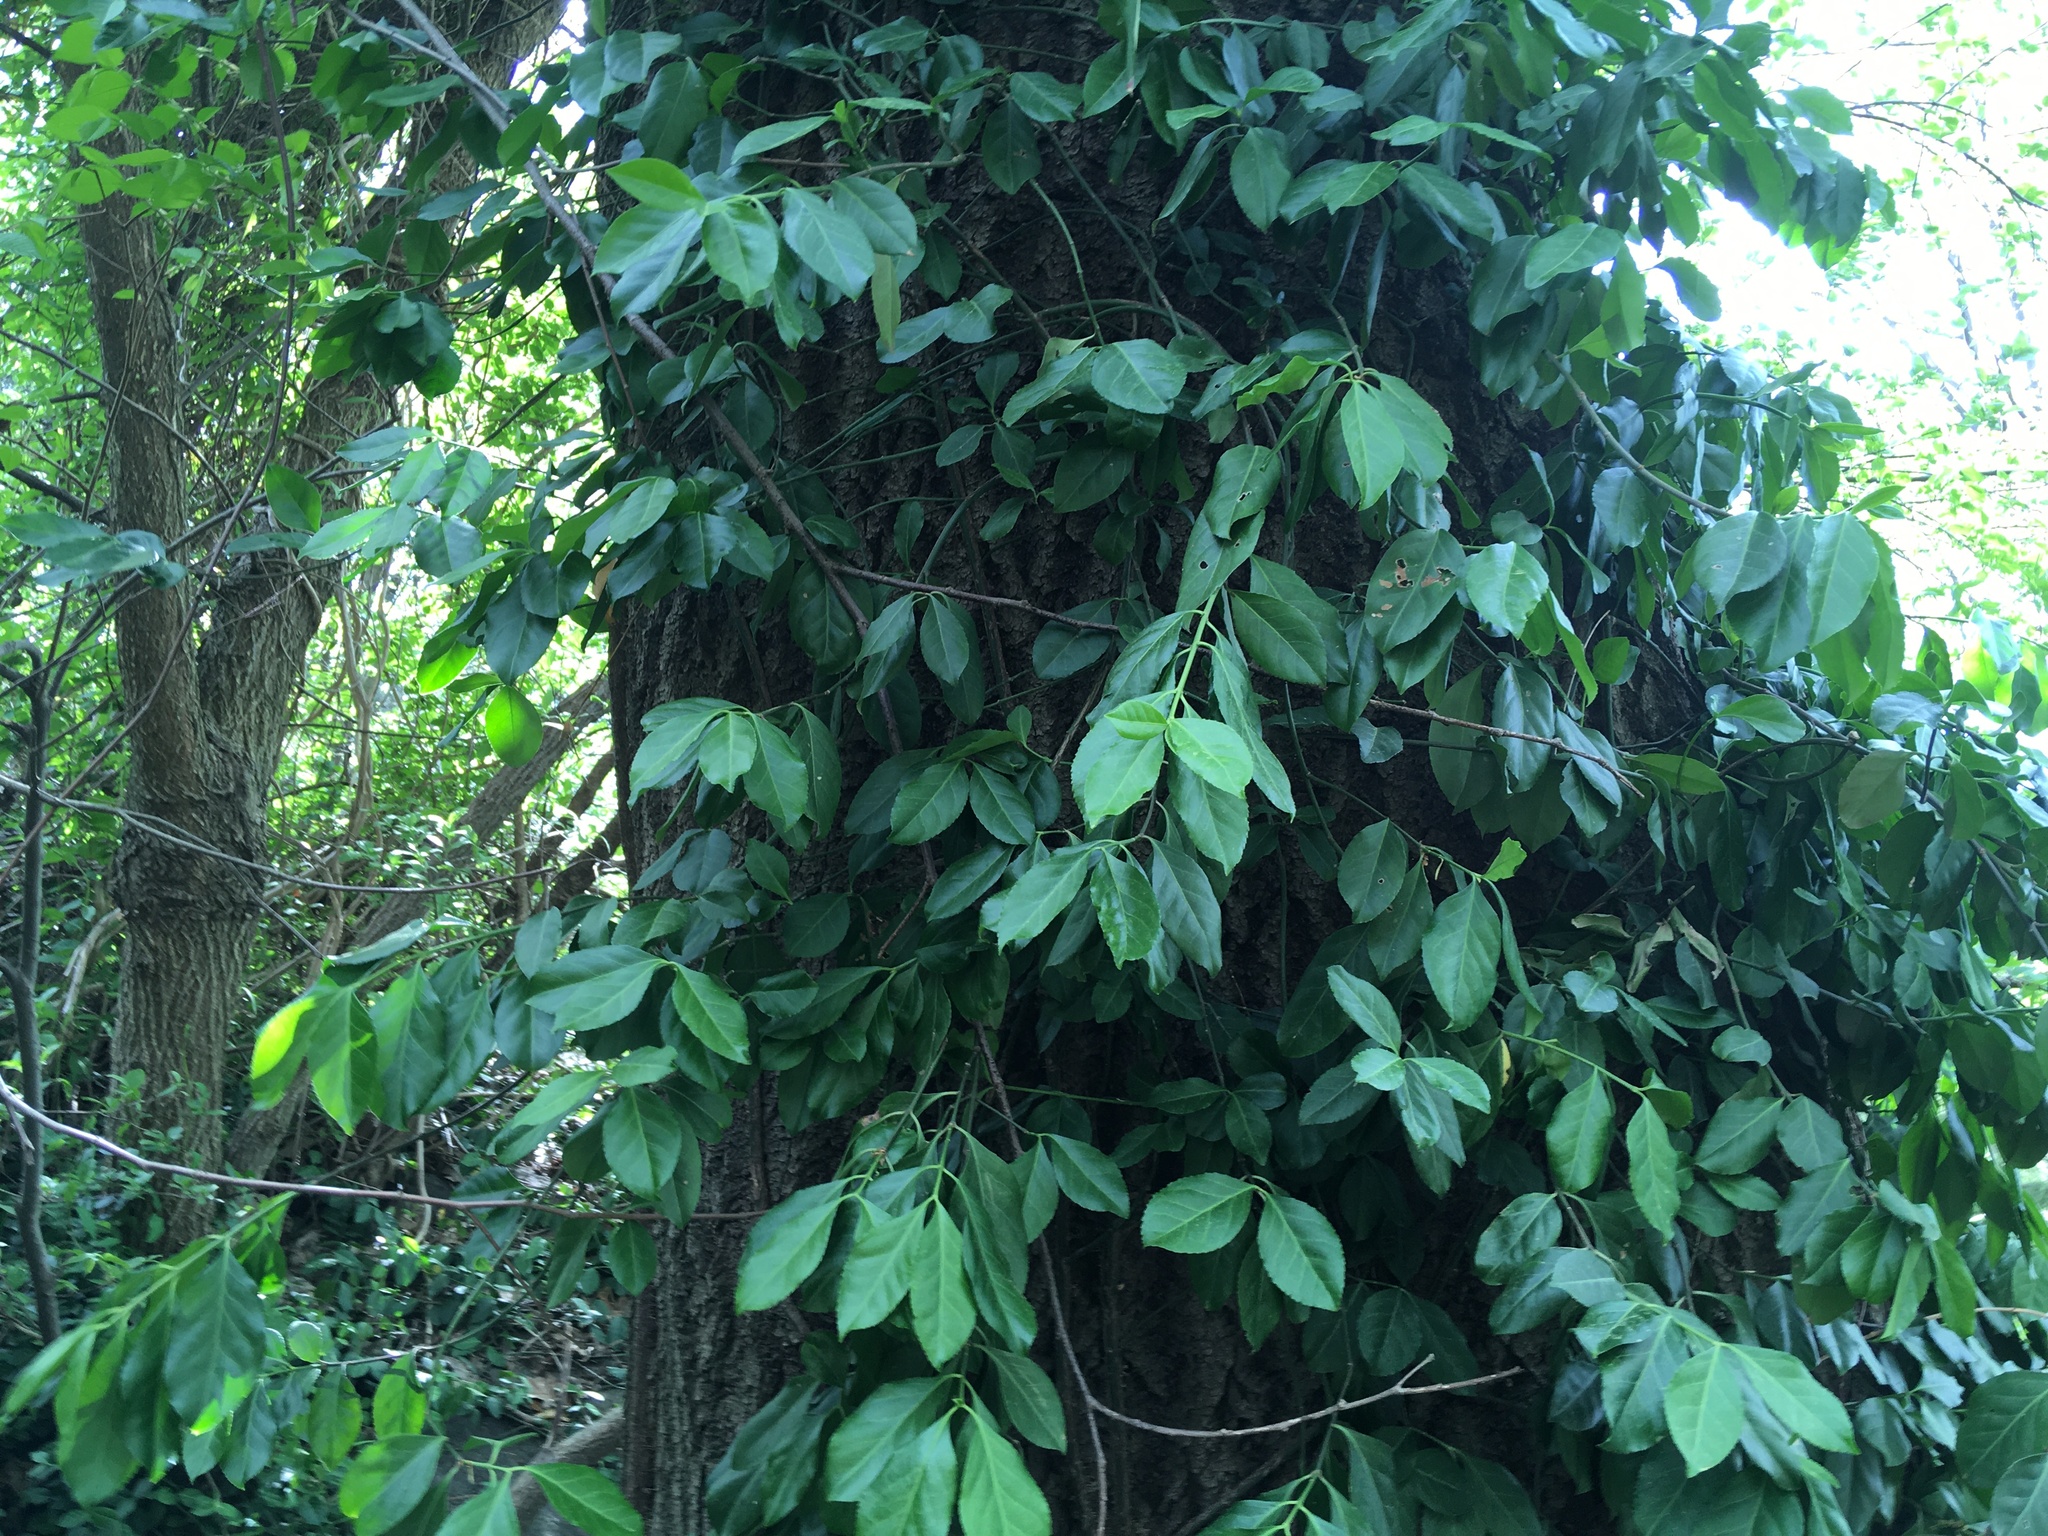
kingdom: Plantae
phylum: Tracheophyta
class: Magnoliopsida
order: Celastrales
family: Celastraceae
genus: Euonymus
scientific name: Euonymus fortunei
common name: Climbing euonymus
